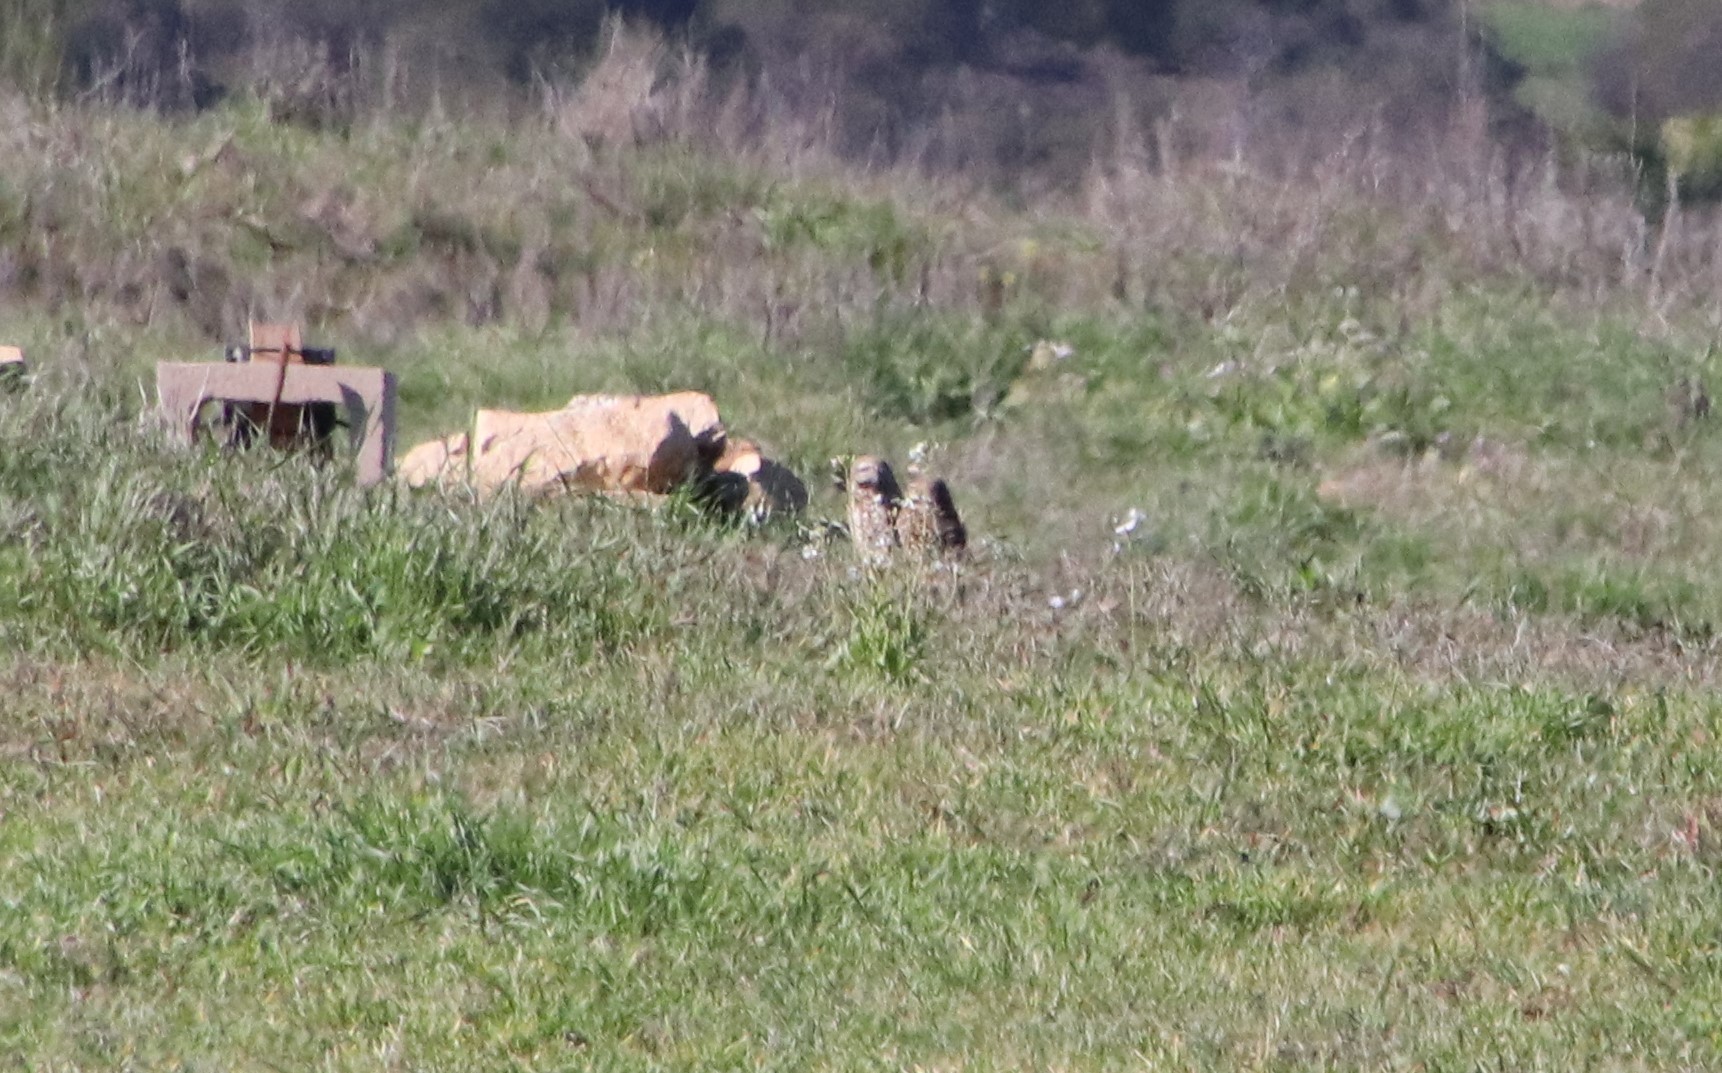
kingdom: Animalia
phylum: Chordata
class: Aves
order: Strigiformes
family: Strigidae
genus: Athene
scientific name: Athene cunicularia
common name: Burrowing owl
